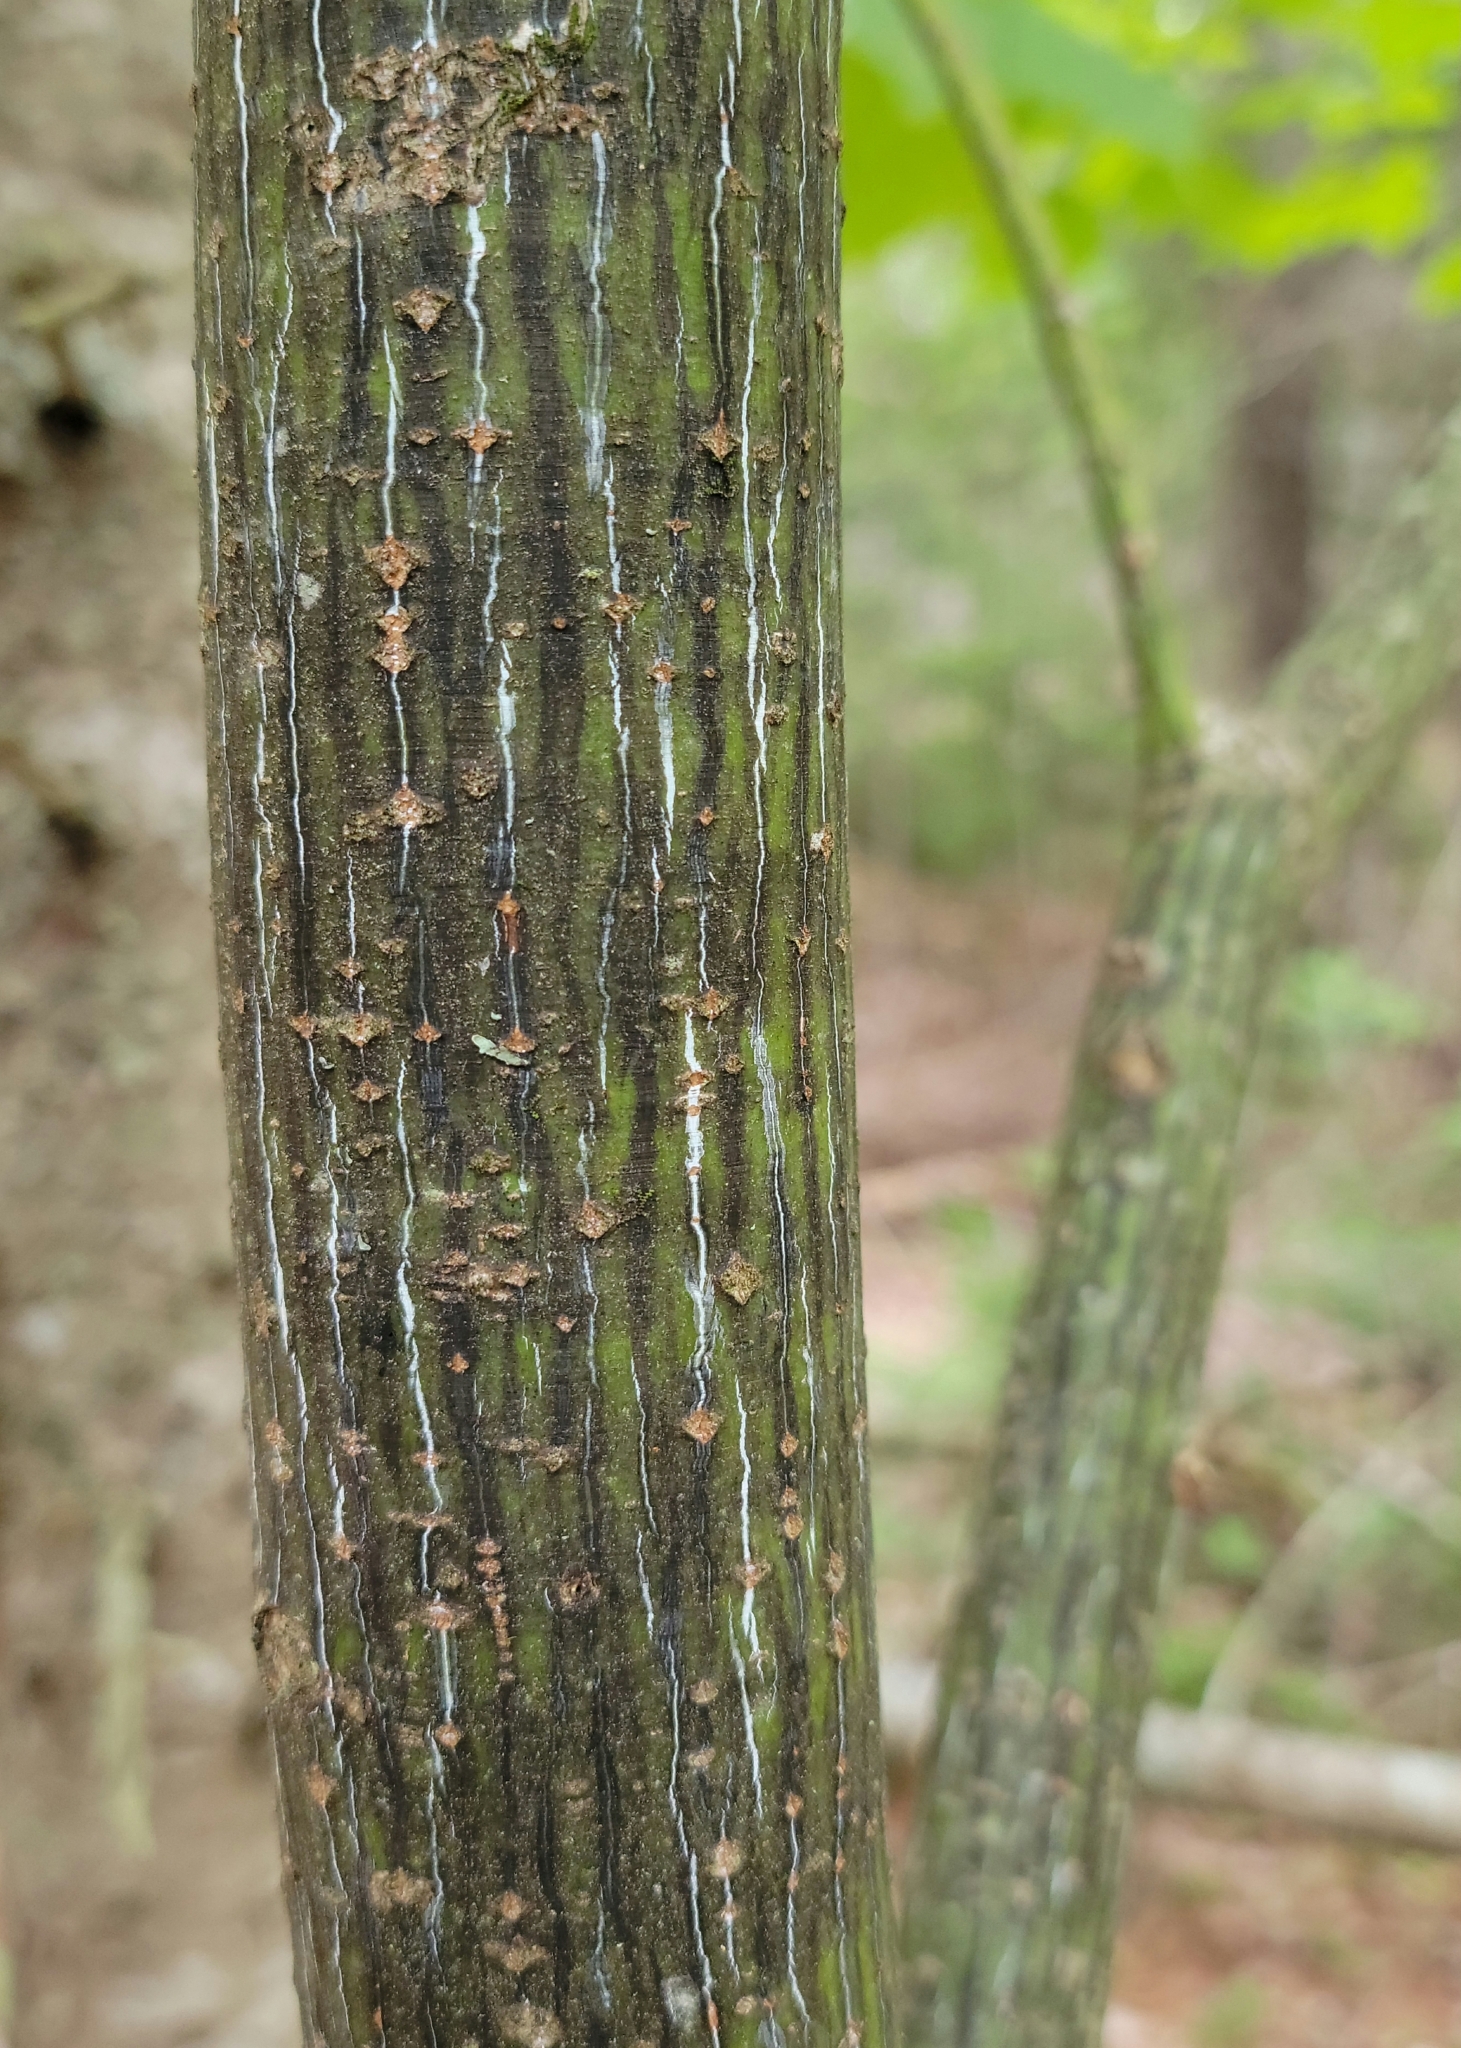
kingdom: Plantae
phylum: Tracheophyta
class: Magnoliopsida
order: Sapindales
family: Sapindaceae
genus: Acer
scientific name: Acer pensylvanicum
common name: Moosewood
